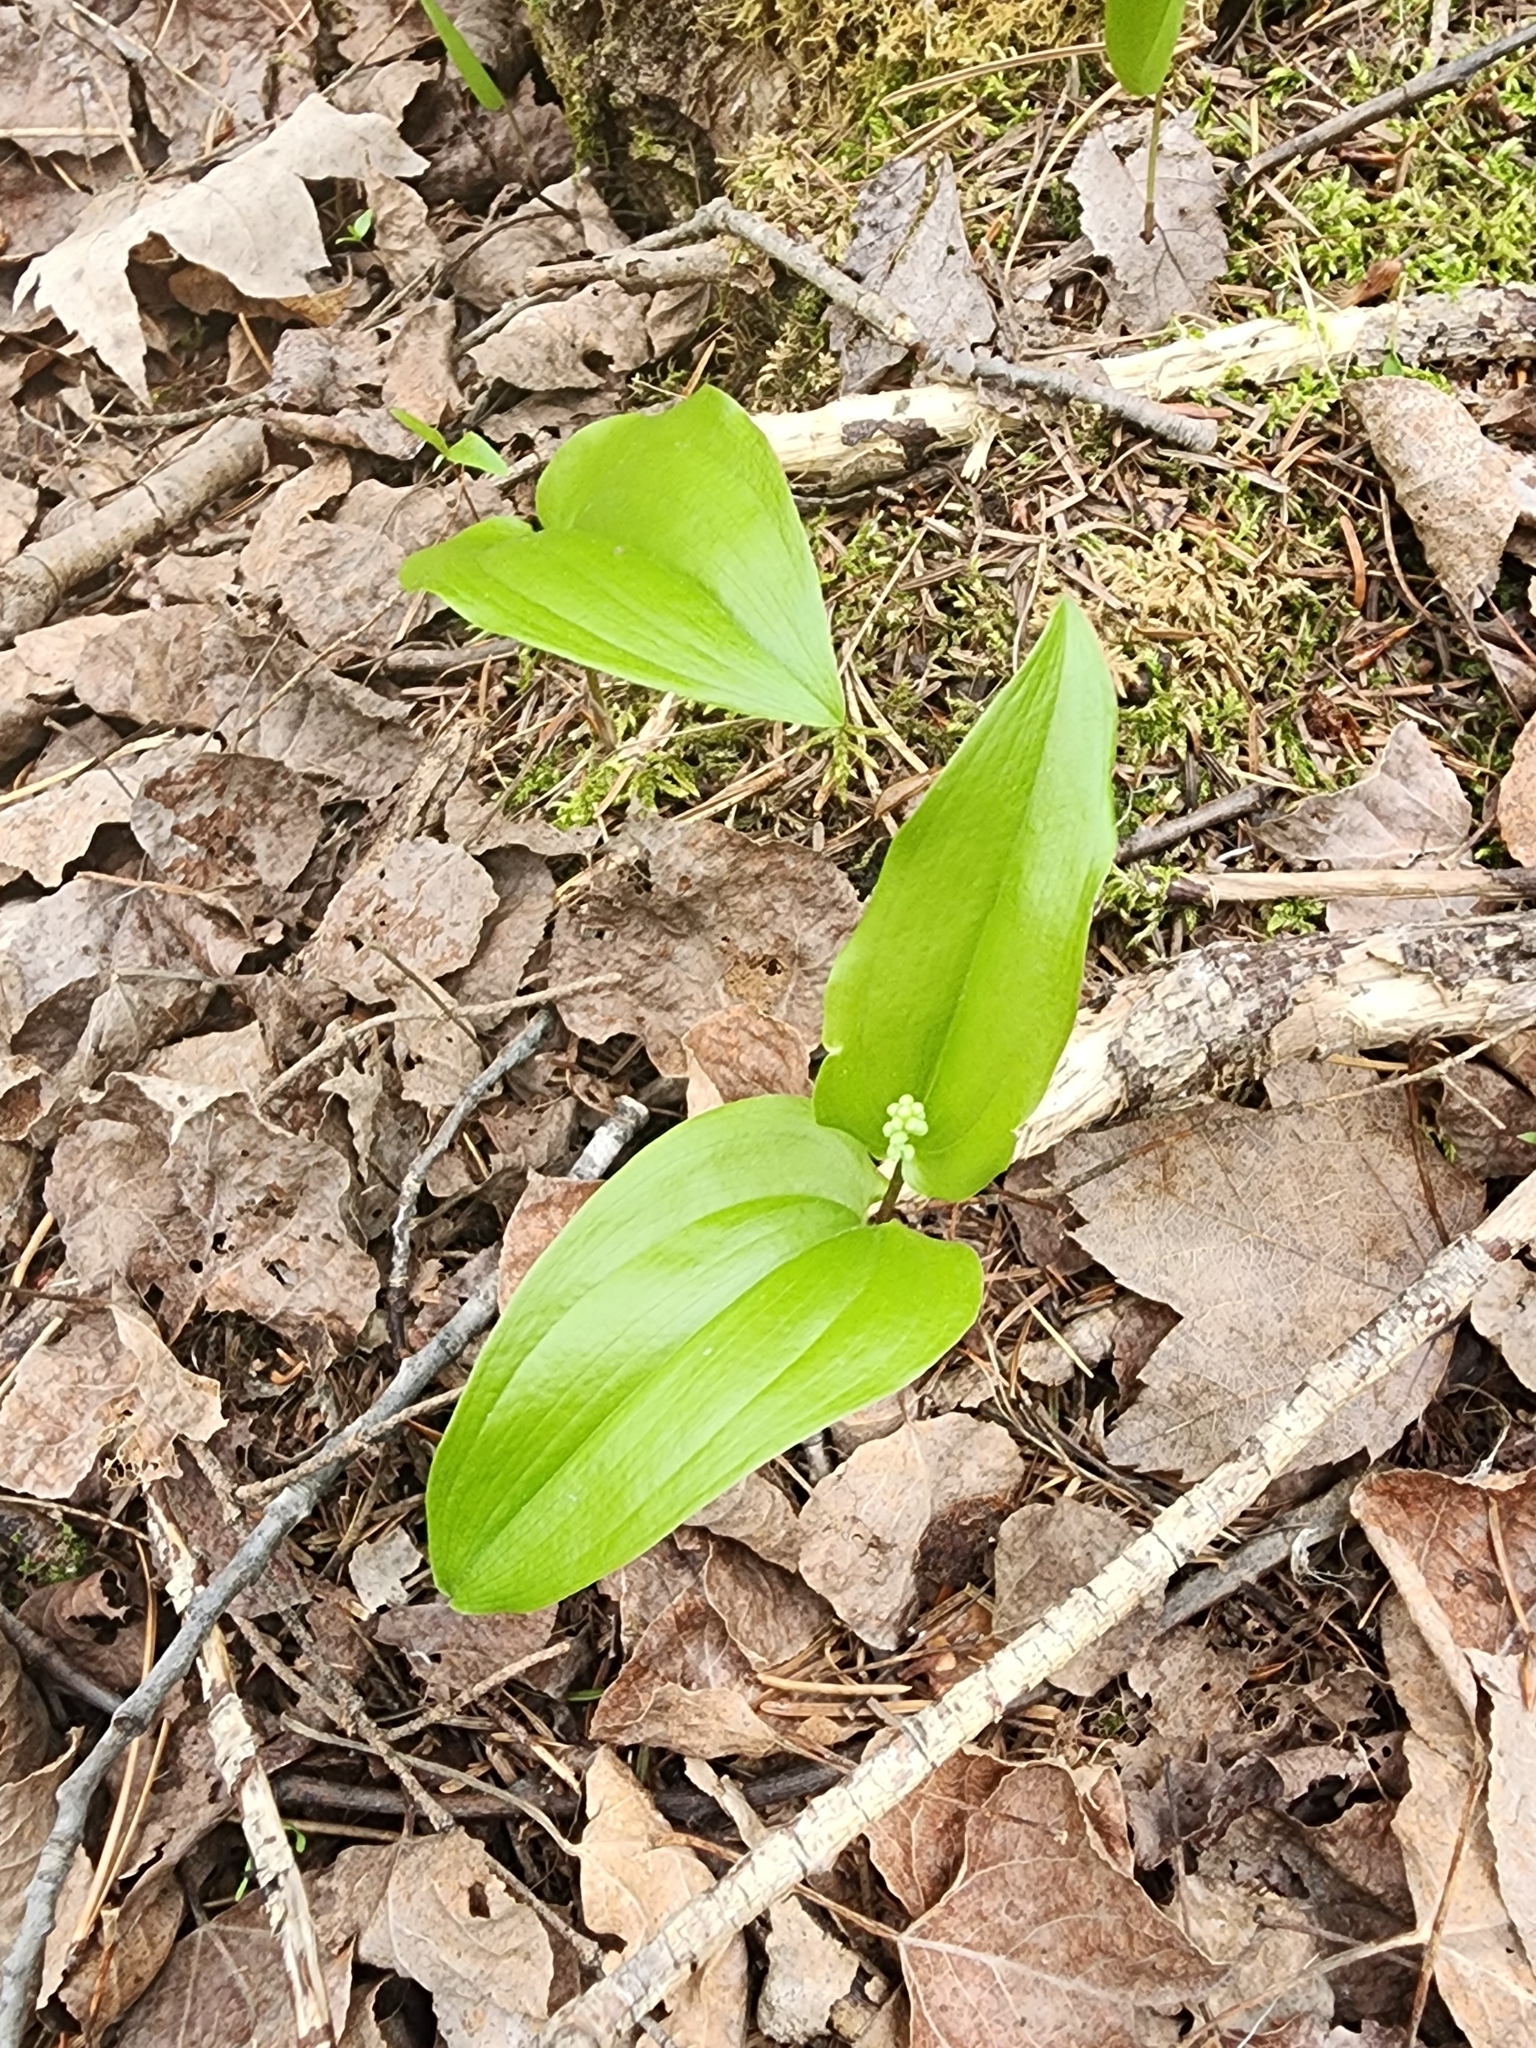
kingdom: Plantae
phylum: Tracheophyta
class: Liliopsida
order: Asparagales
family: Asparagaceae
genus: Maianthemum
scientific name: Maianthemum canadense
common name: False lily-of-the-valley
